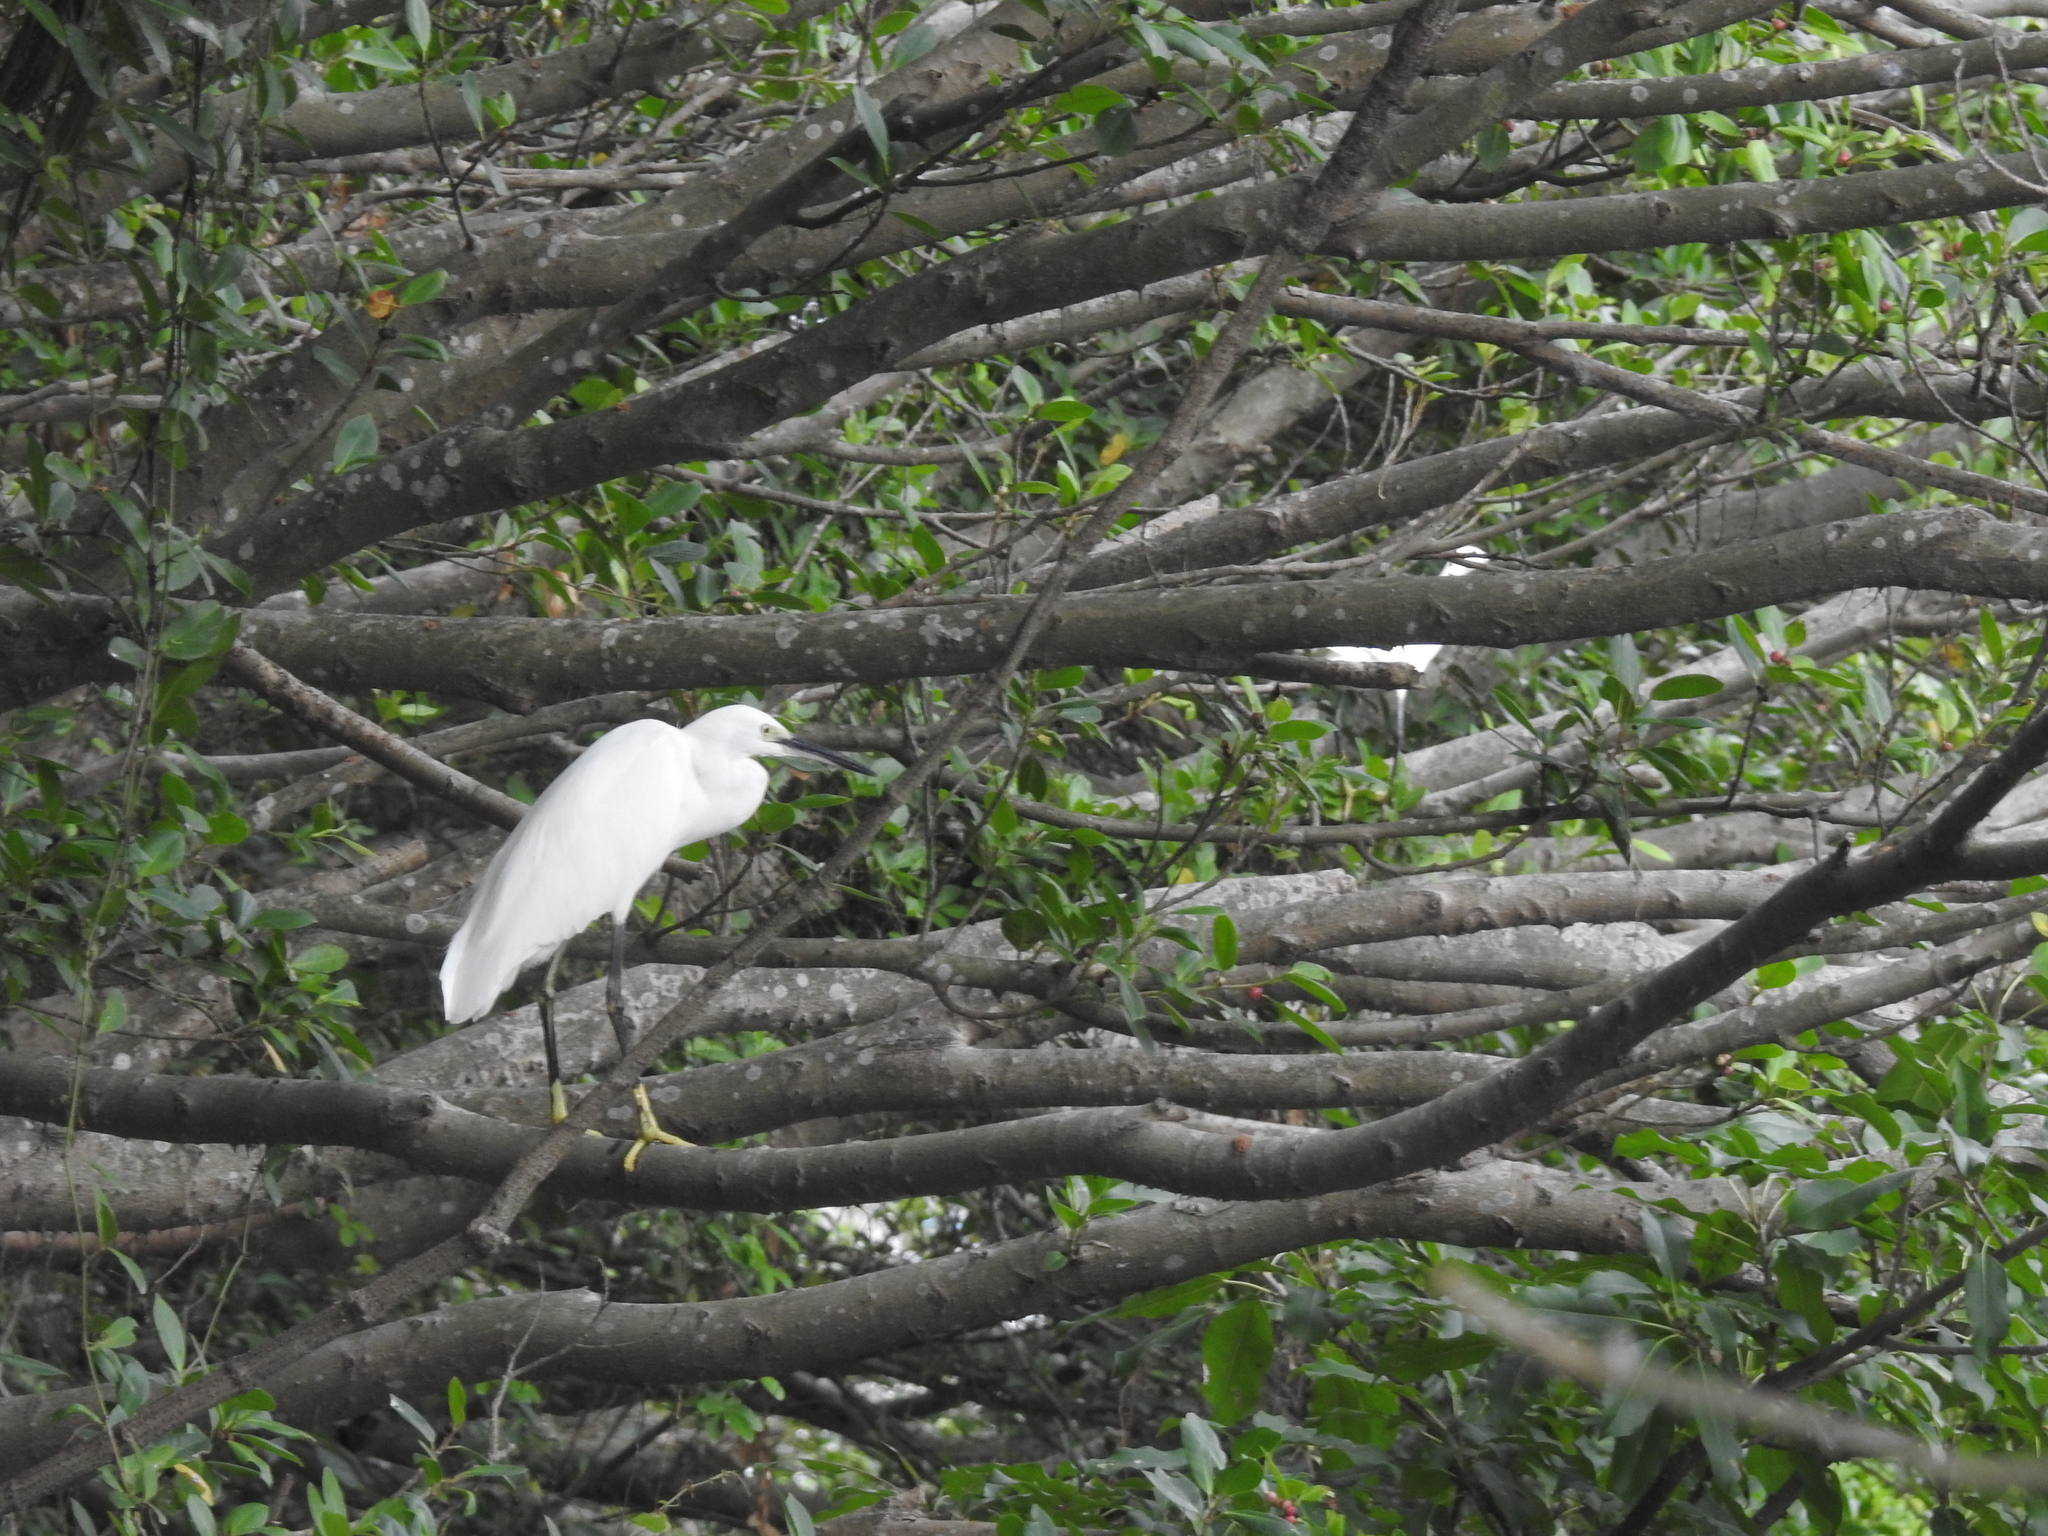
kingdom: Animalia
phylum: Chordata
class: Aves
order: Pelecaniformes
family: Ardeidae
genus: Egretta
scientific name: Egretta garzetta
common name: Little egret
